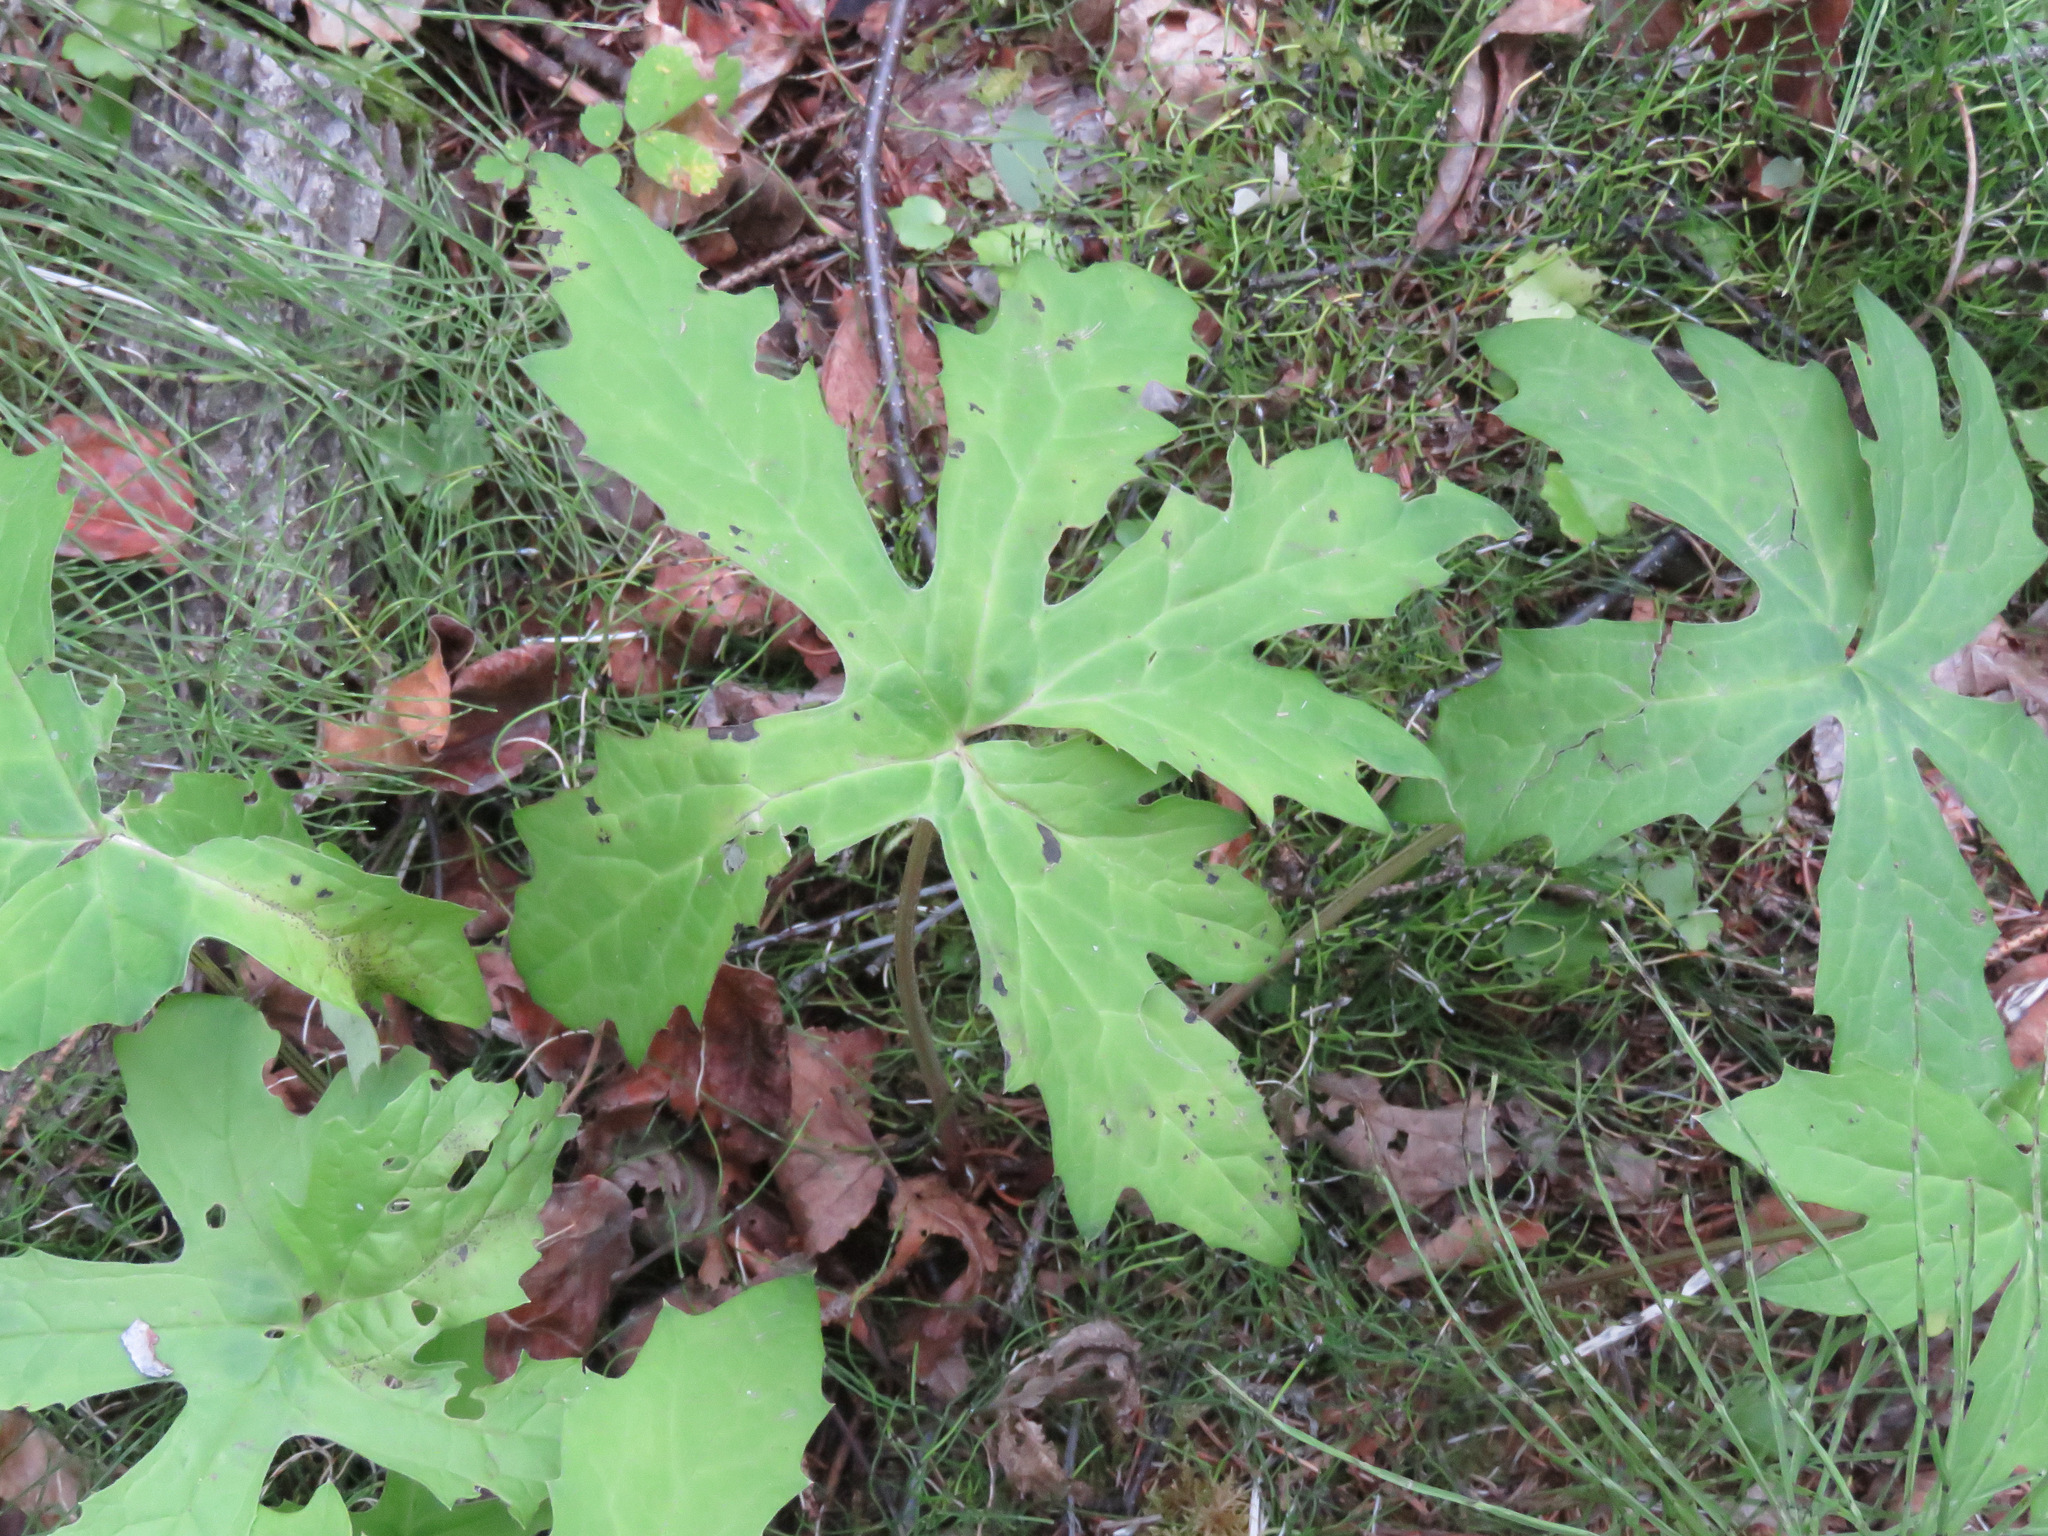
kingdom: Plantae
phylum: Tracheophyta
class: Magnoliopsida
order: Asterales
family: Asteraceae
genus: Petasites
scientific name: Petasites frigidus
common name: Arctic butterbur
